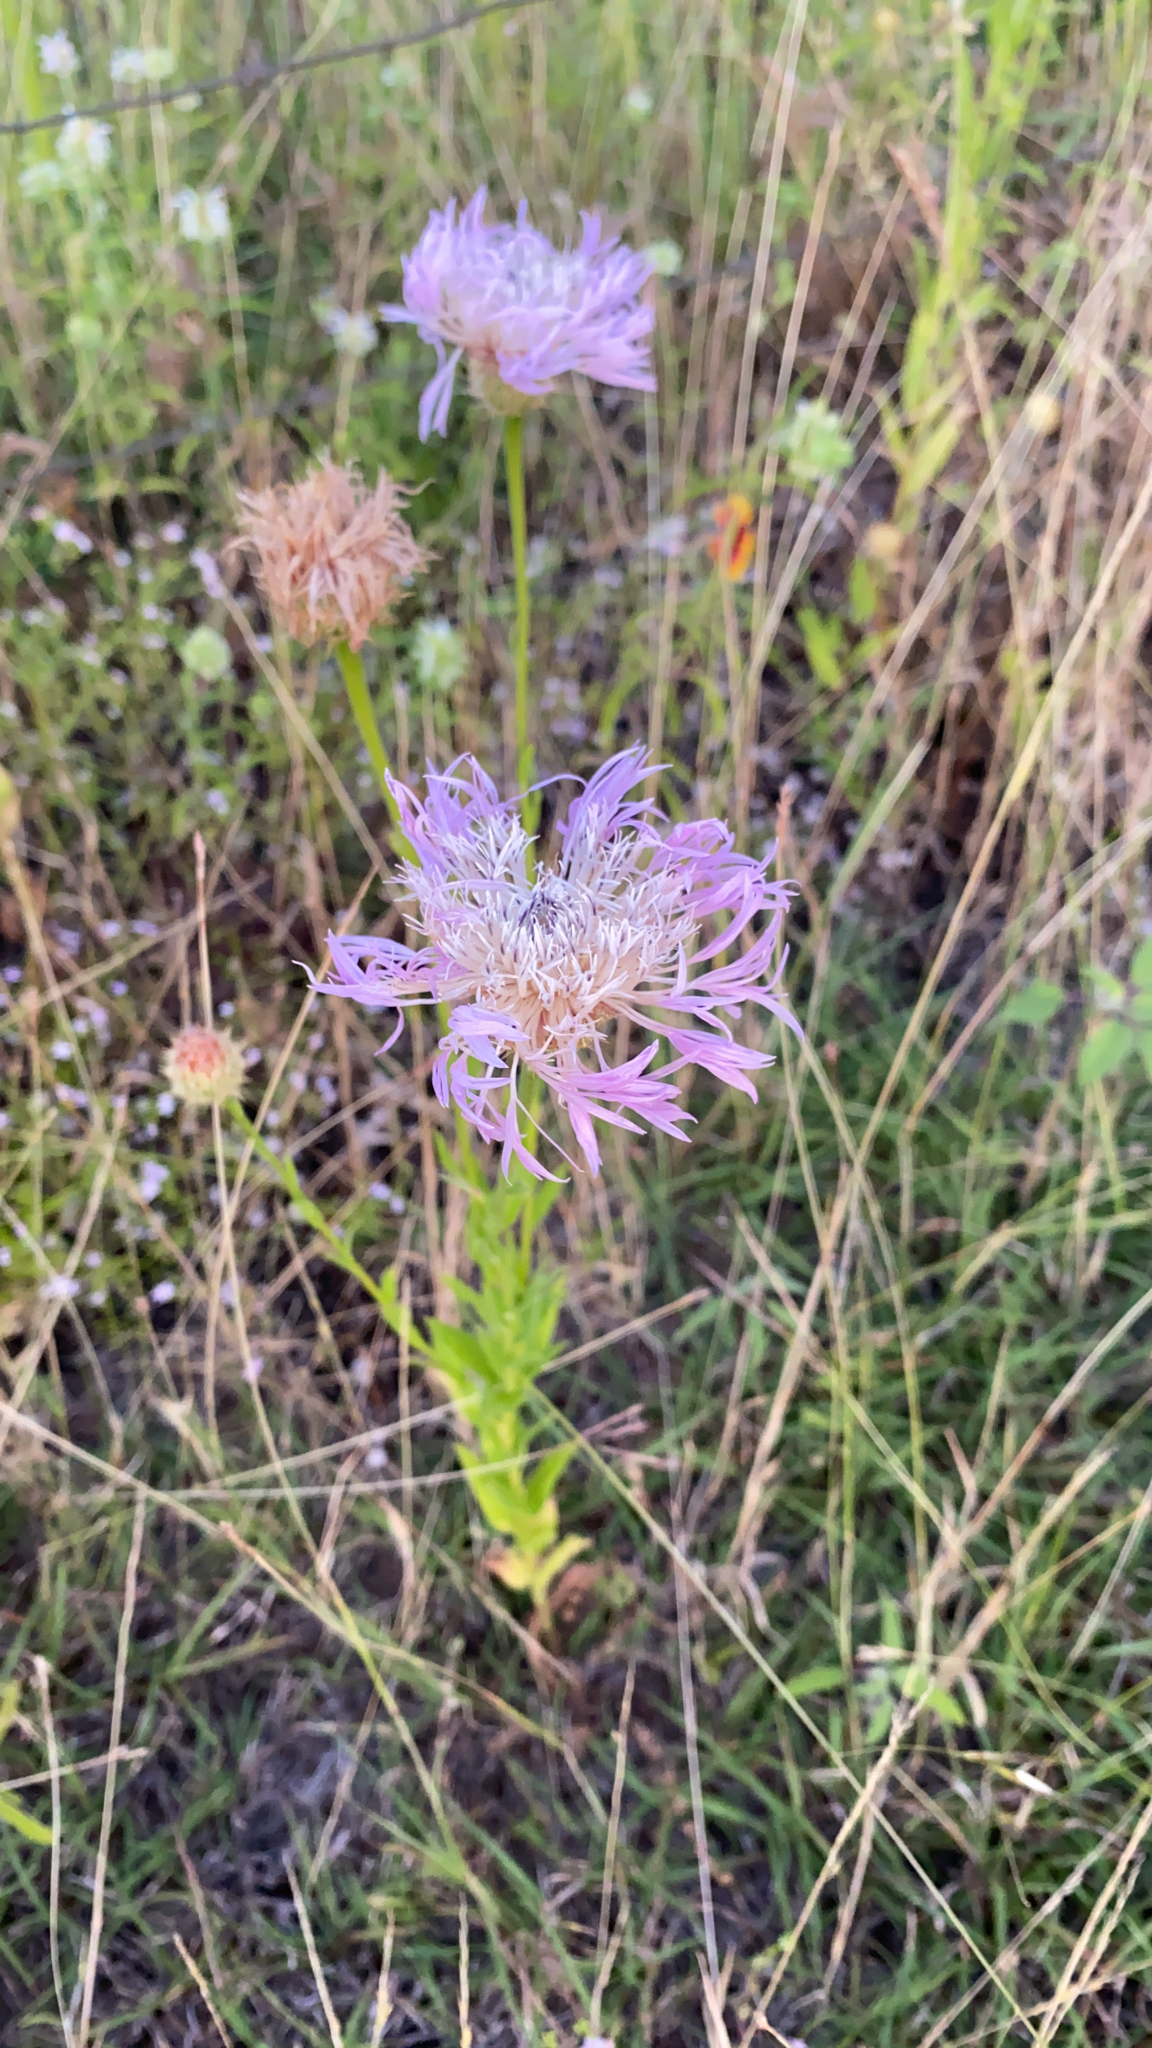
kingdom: Plantae
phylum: Tracheophyta
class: Magnoliopsida
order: Asterales
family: Asteraceae
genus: Plectocephalus
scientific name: Plectocephalus americanus
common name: American basket-flower
